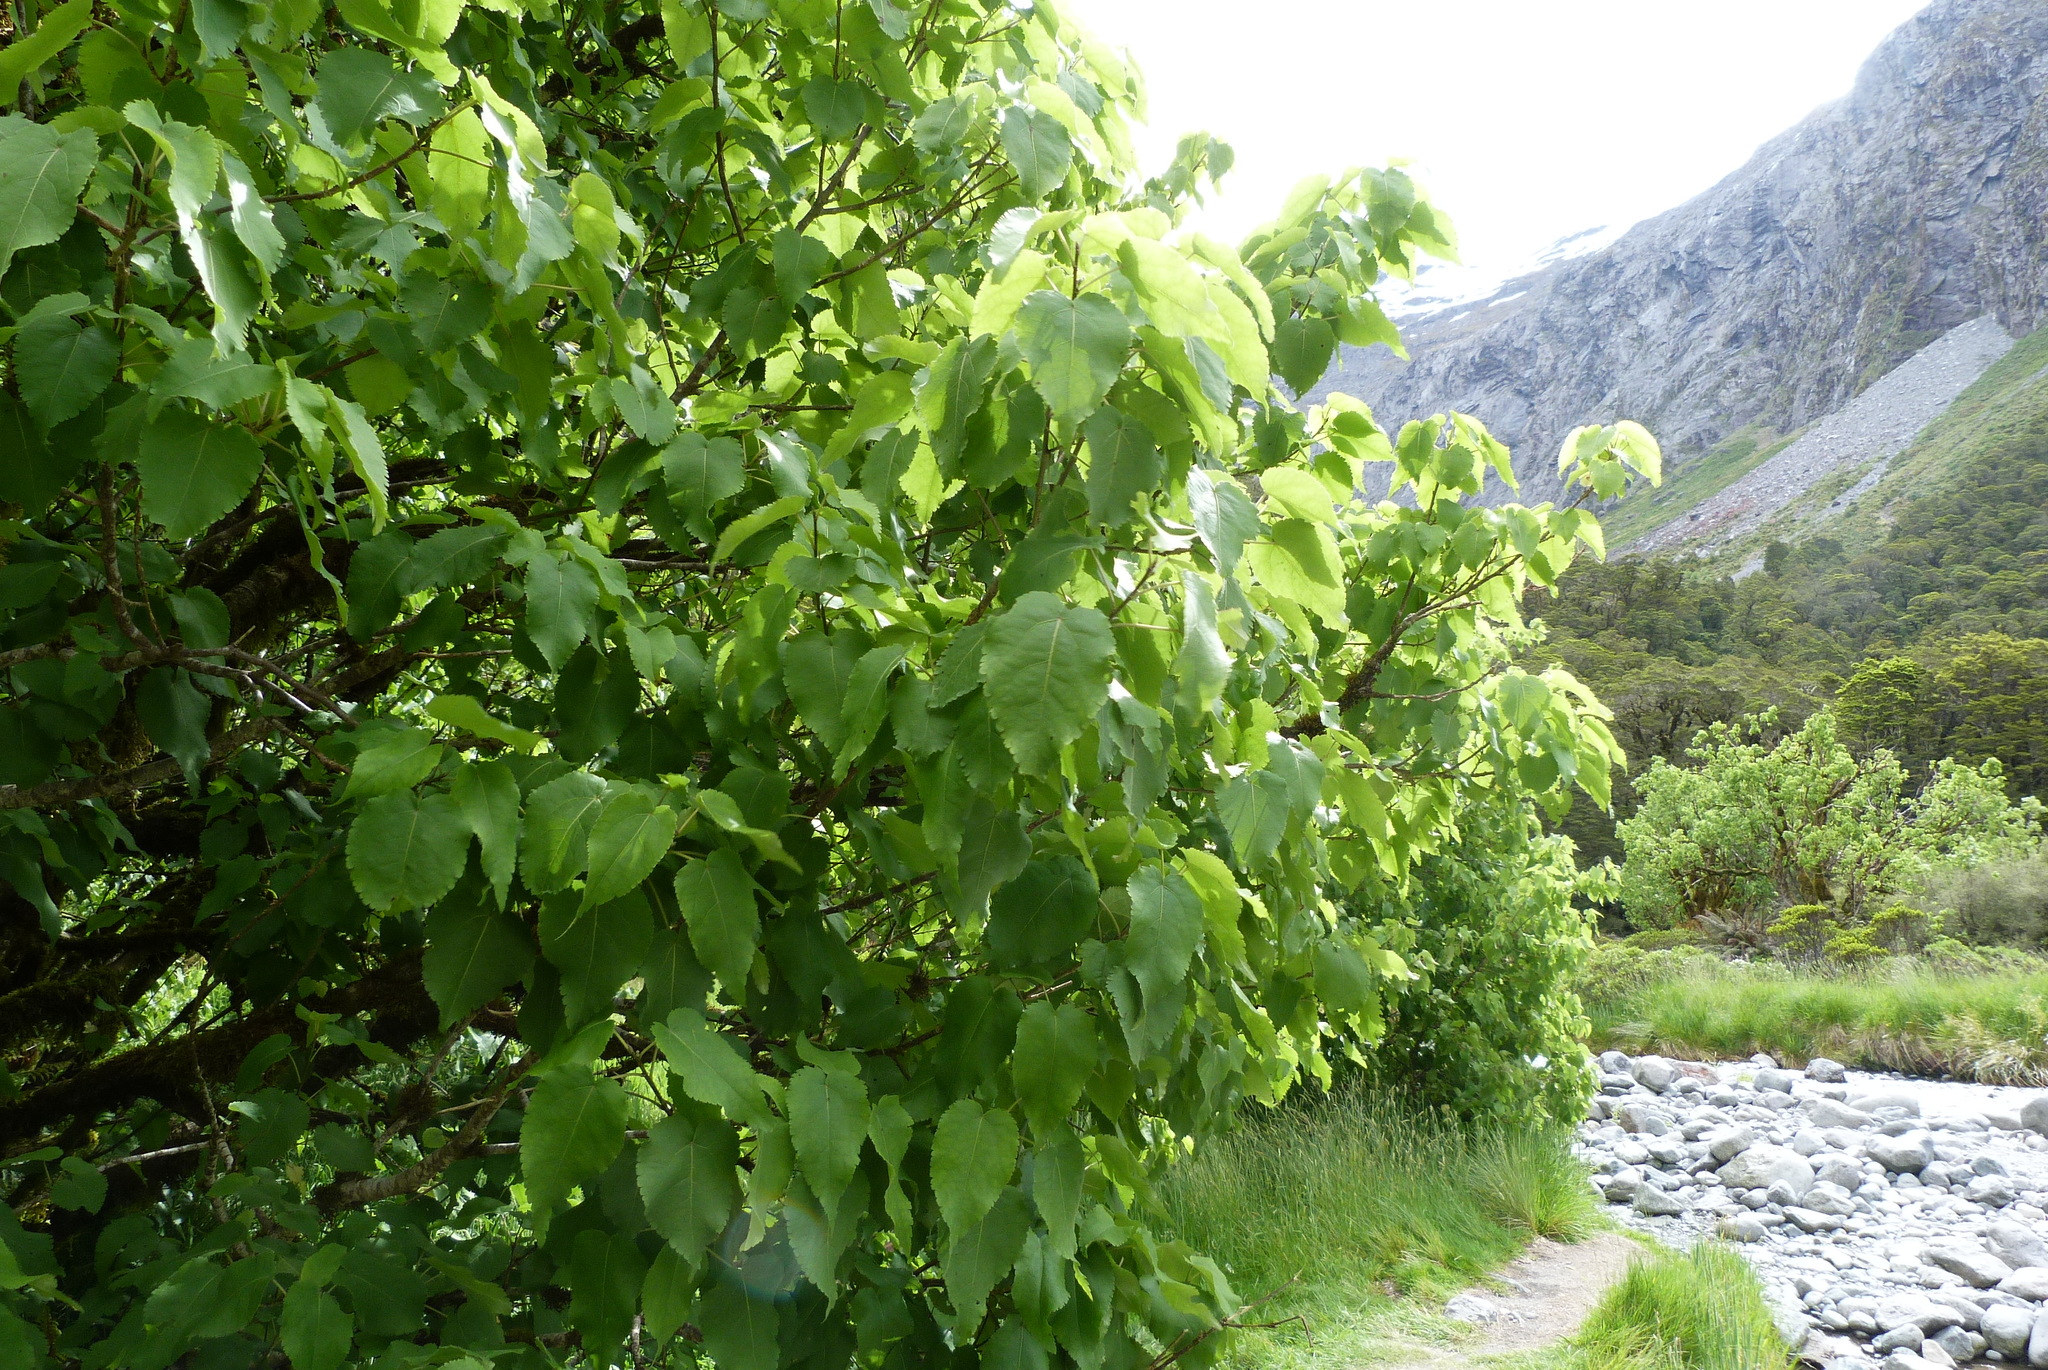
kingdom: Plantae
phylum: Tracheophyta
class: Magnoliopsida
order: Malvales
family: Malvaceae
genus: Hoheria
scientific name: Hoheria lyallii
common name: Lacebark
